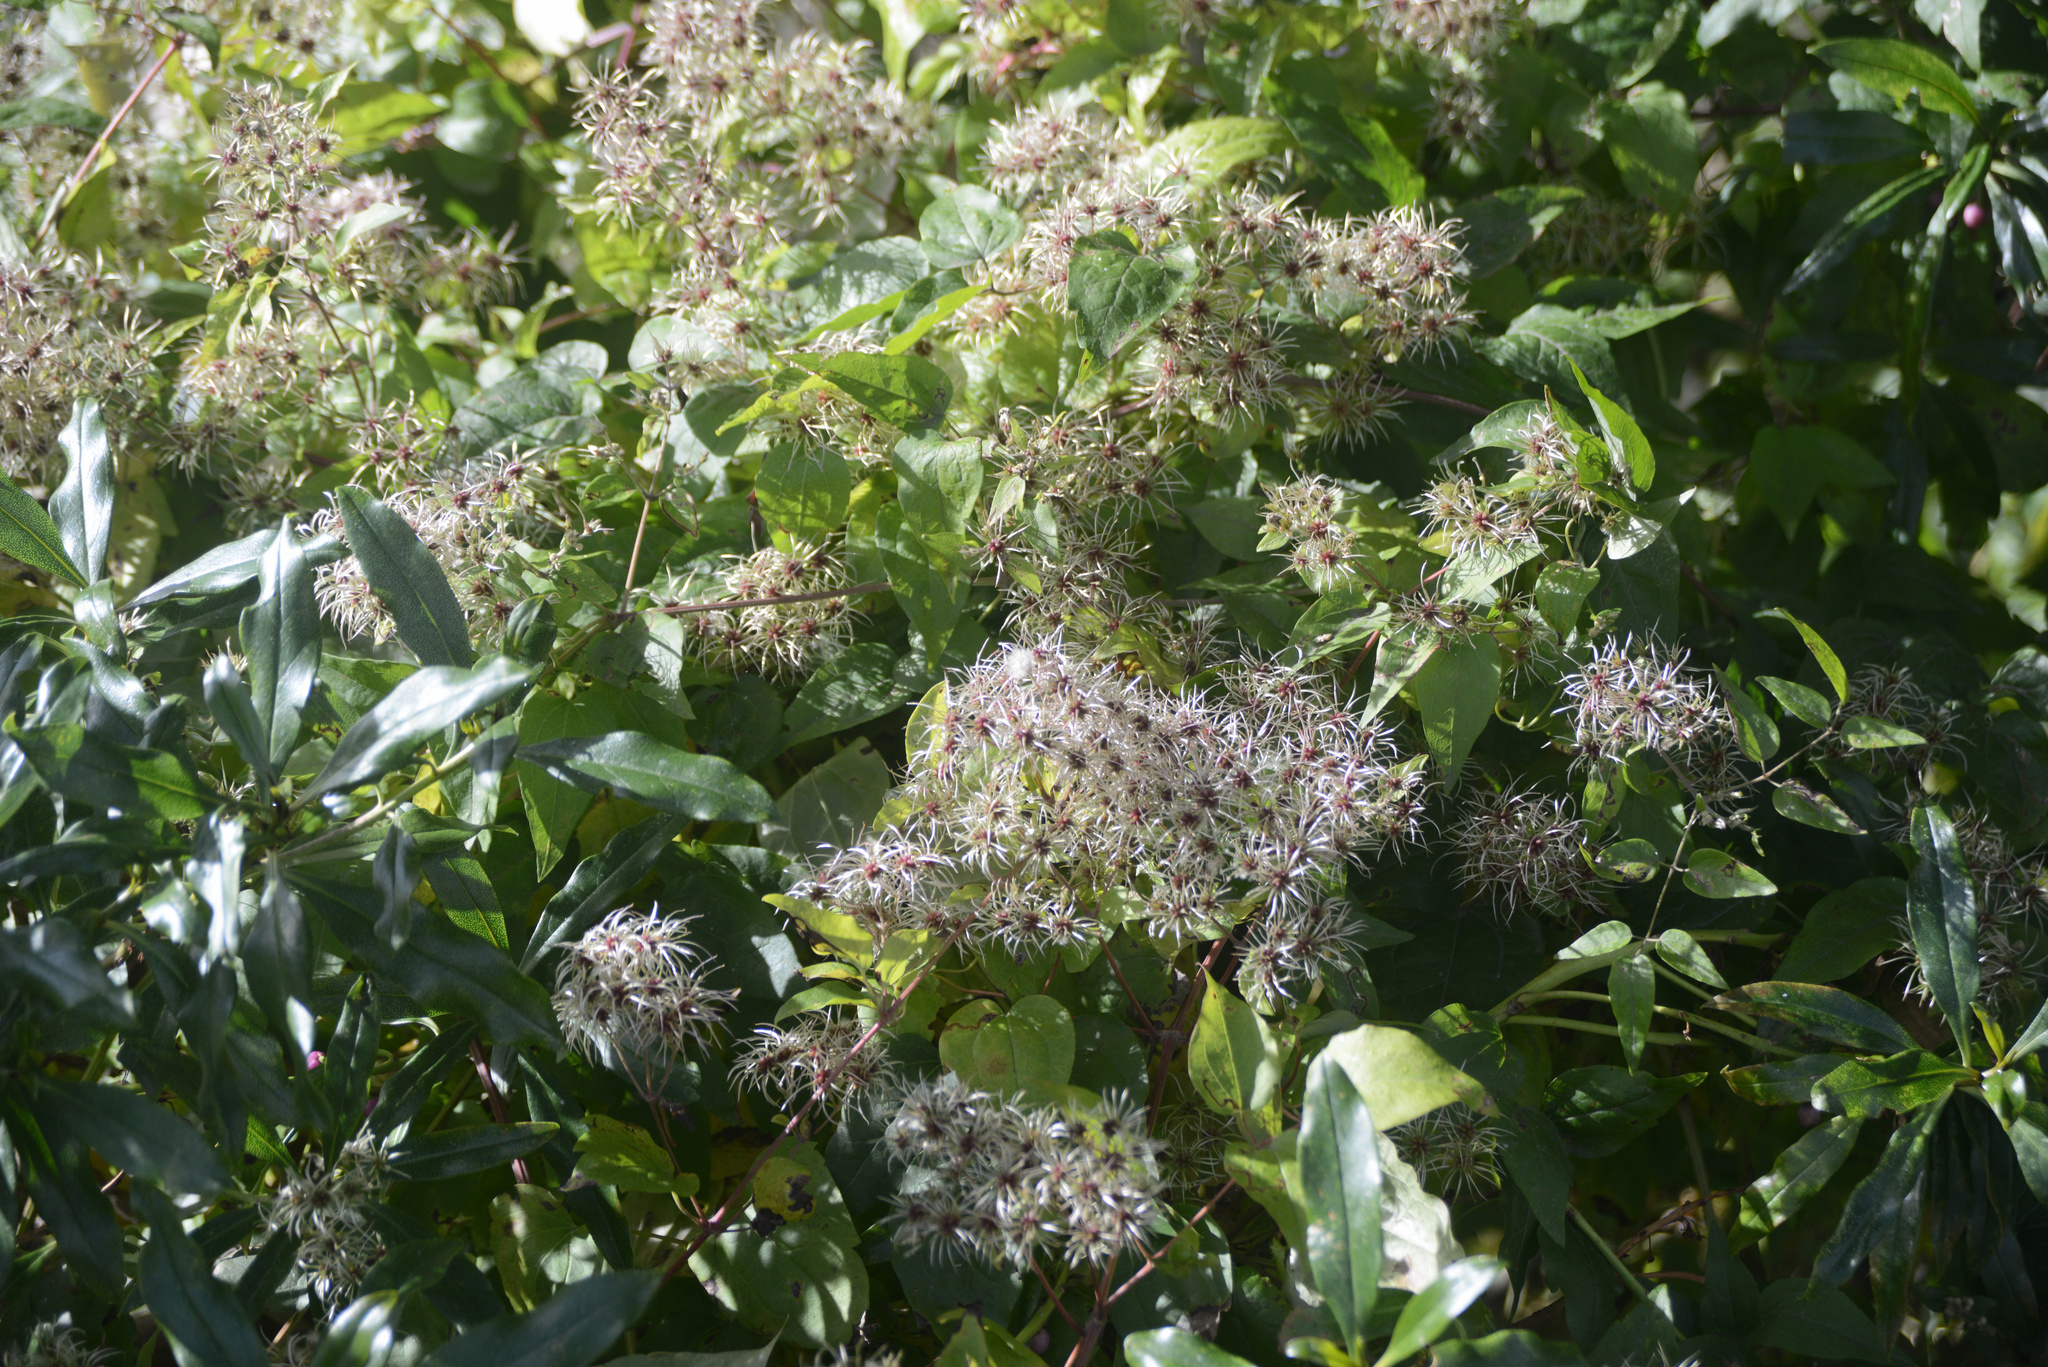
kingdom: Plantae
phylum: Tracheophyta
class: Magnoliopsida
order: Ranunculales
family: Ranunculaceae
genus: Clematis
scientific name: Clematis vitalba
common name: Evergreen clematis
